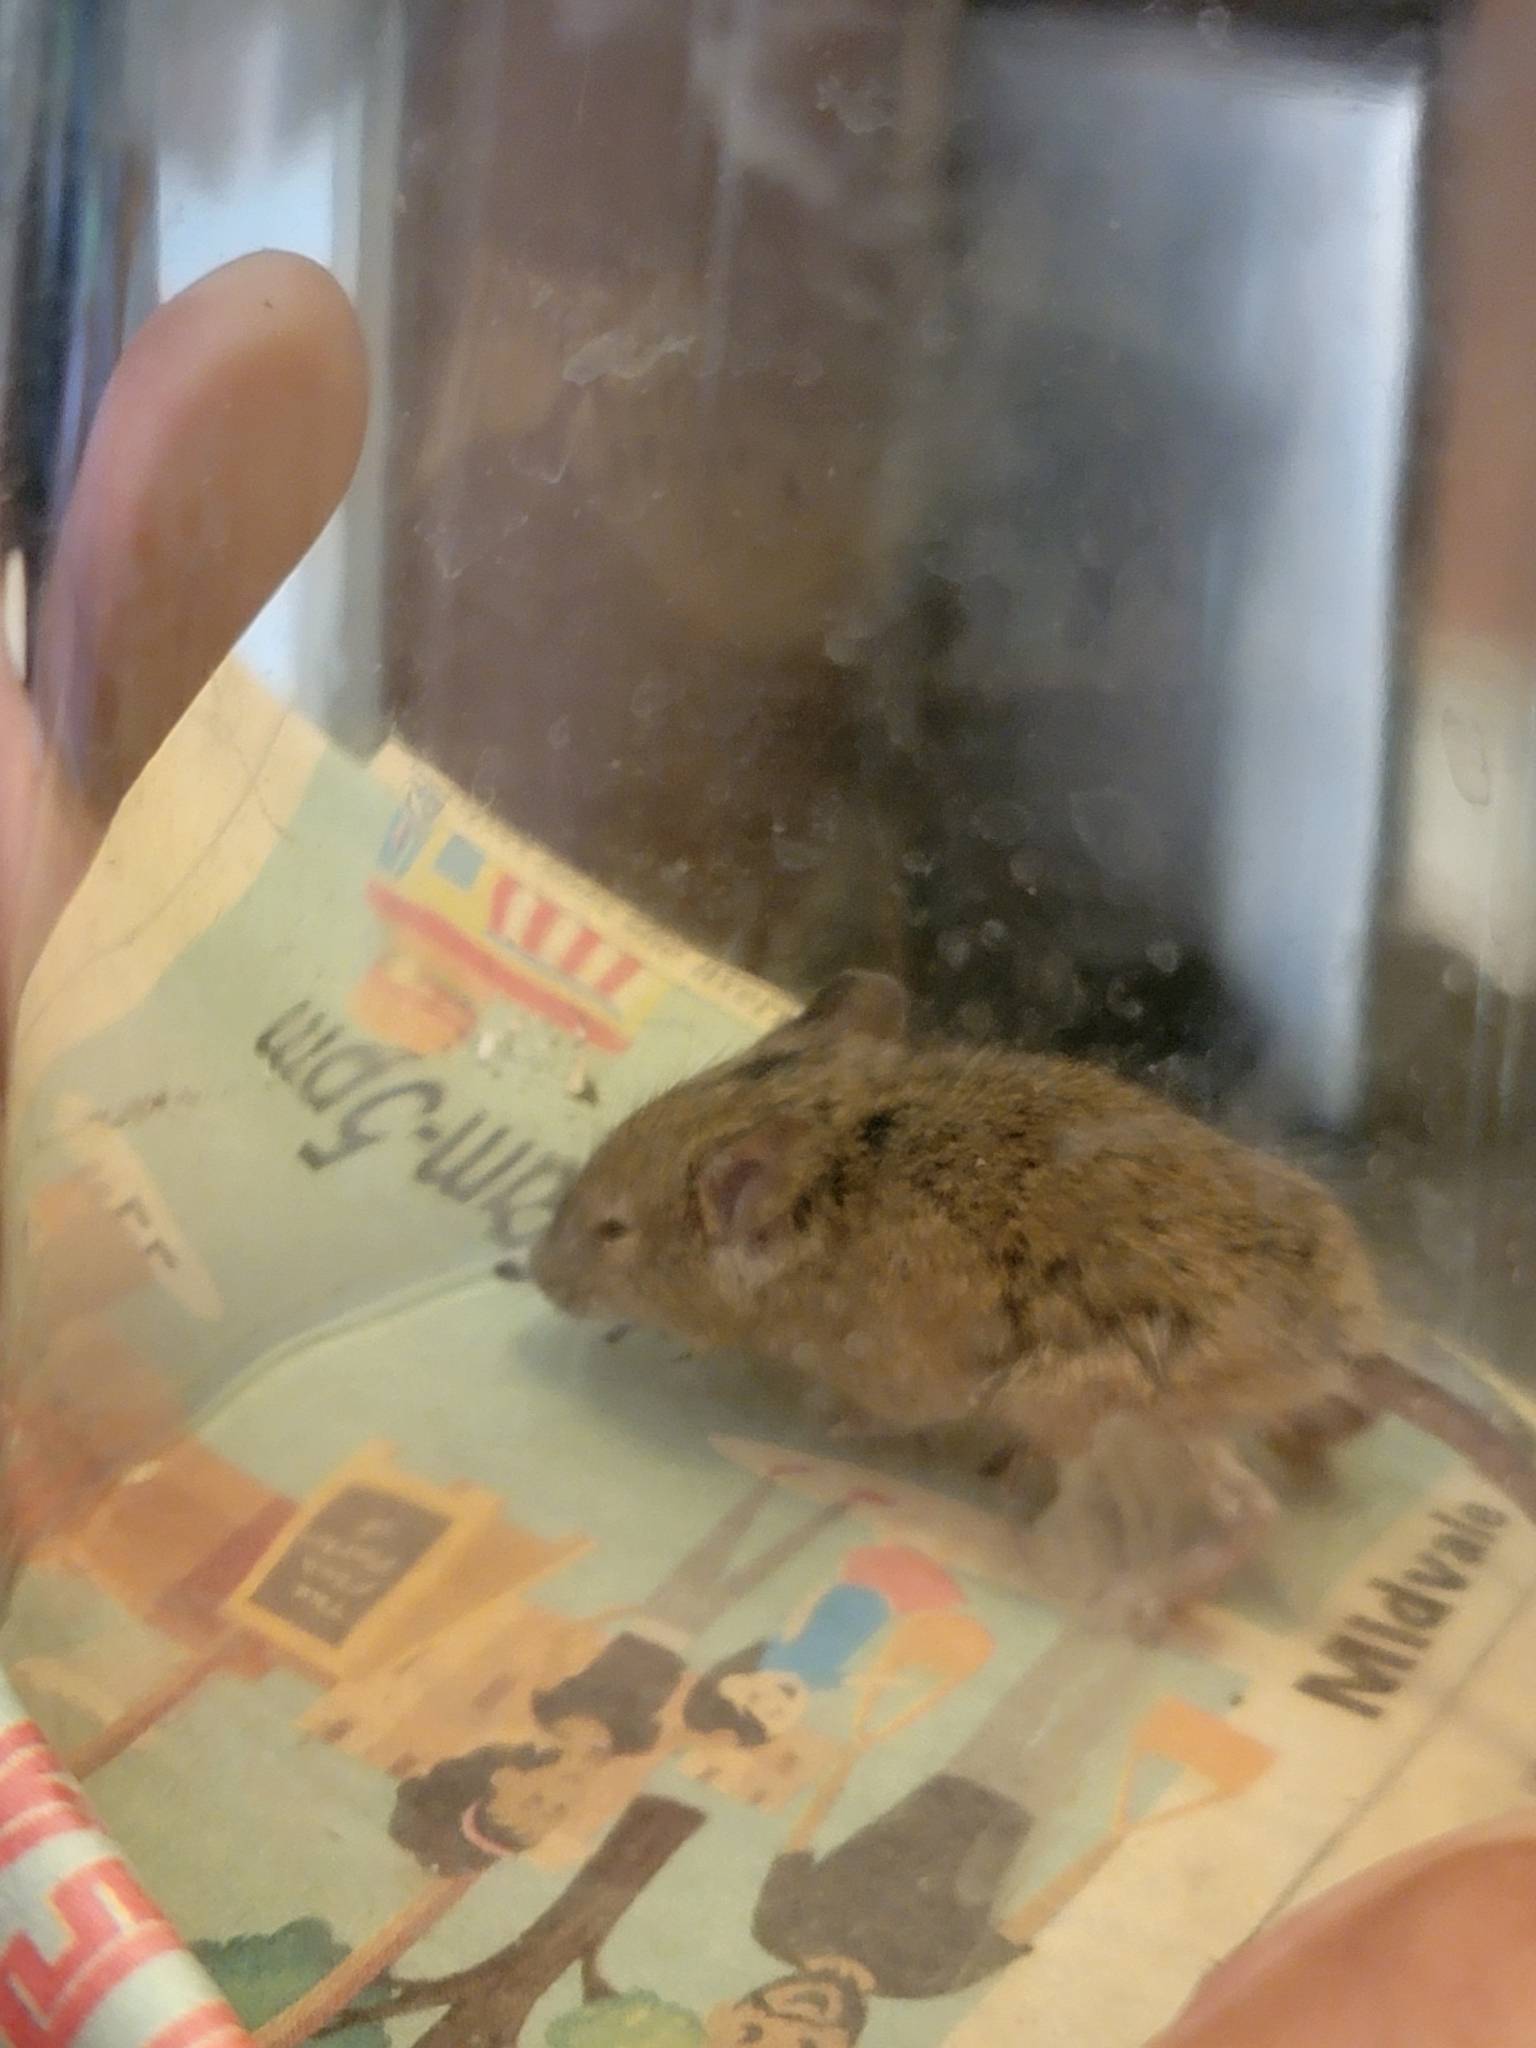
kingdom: Animalia
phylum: Chordata
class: Mammalia
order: Rodentia
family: Muridae
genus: Mus
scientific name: Mus musculus
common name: House mouse
